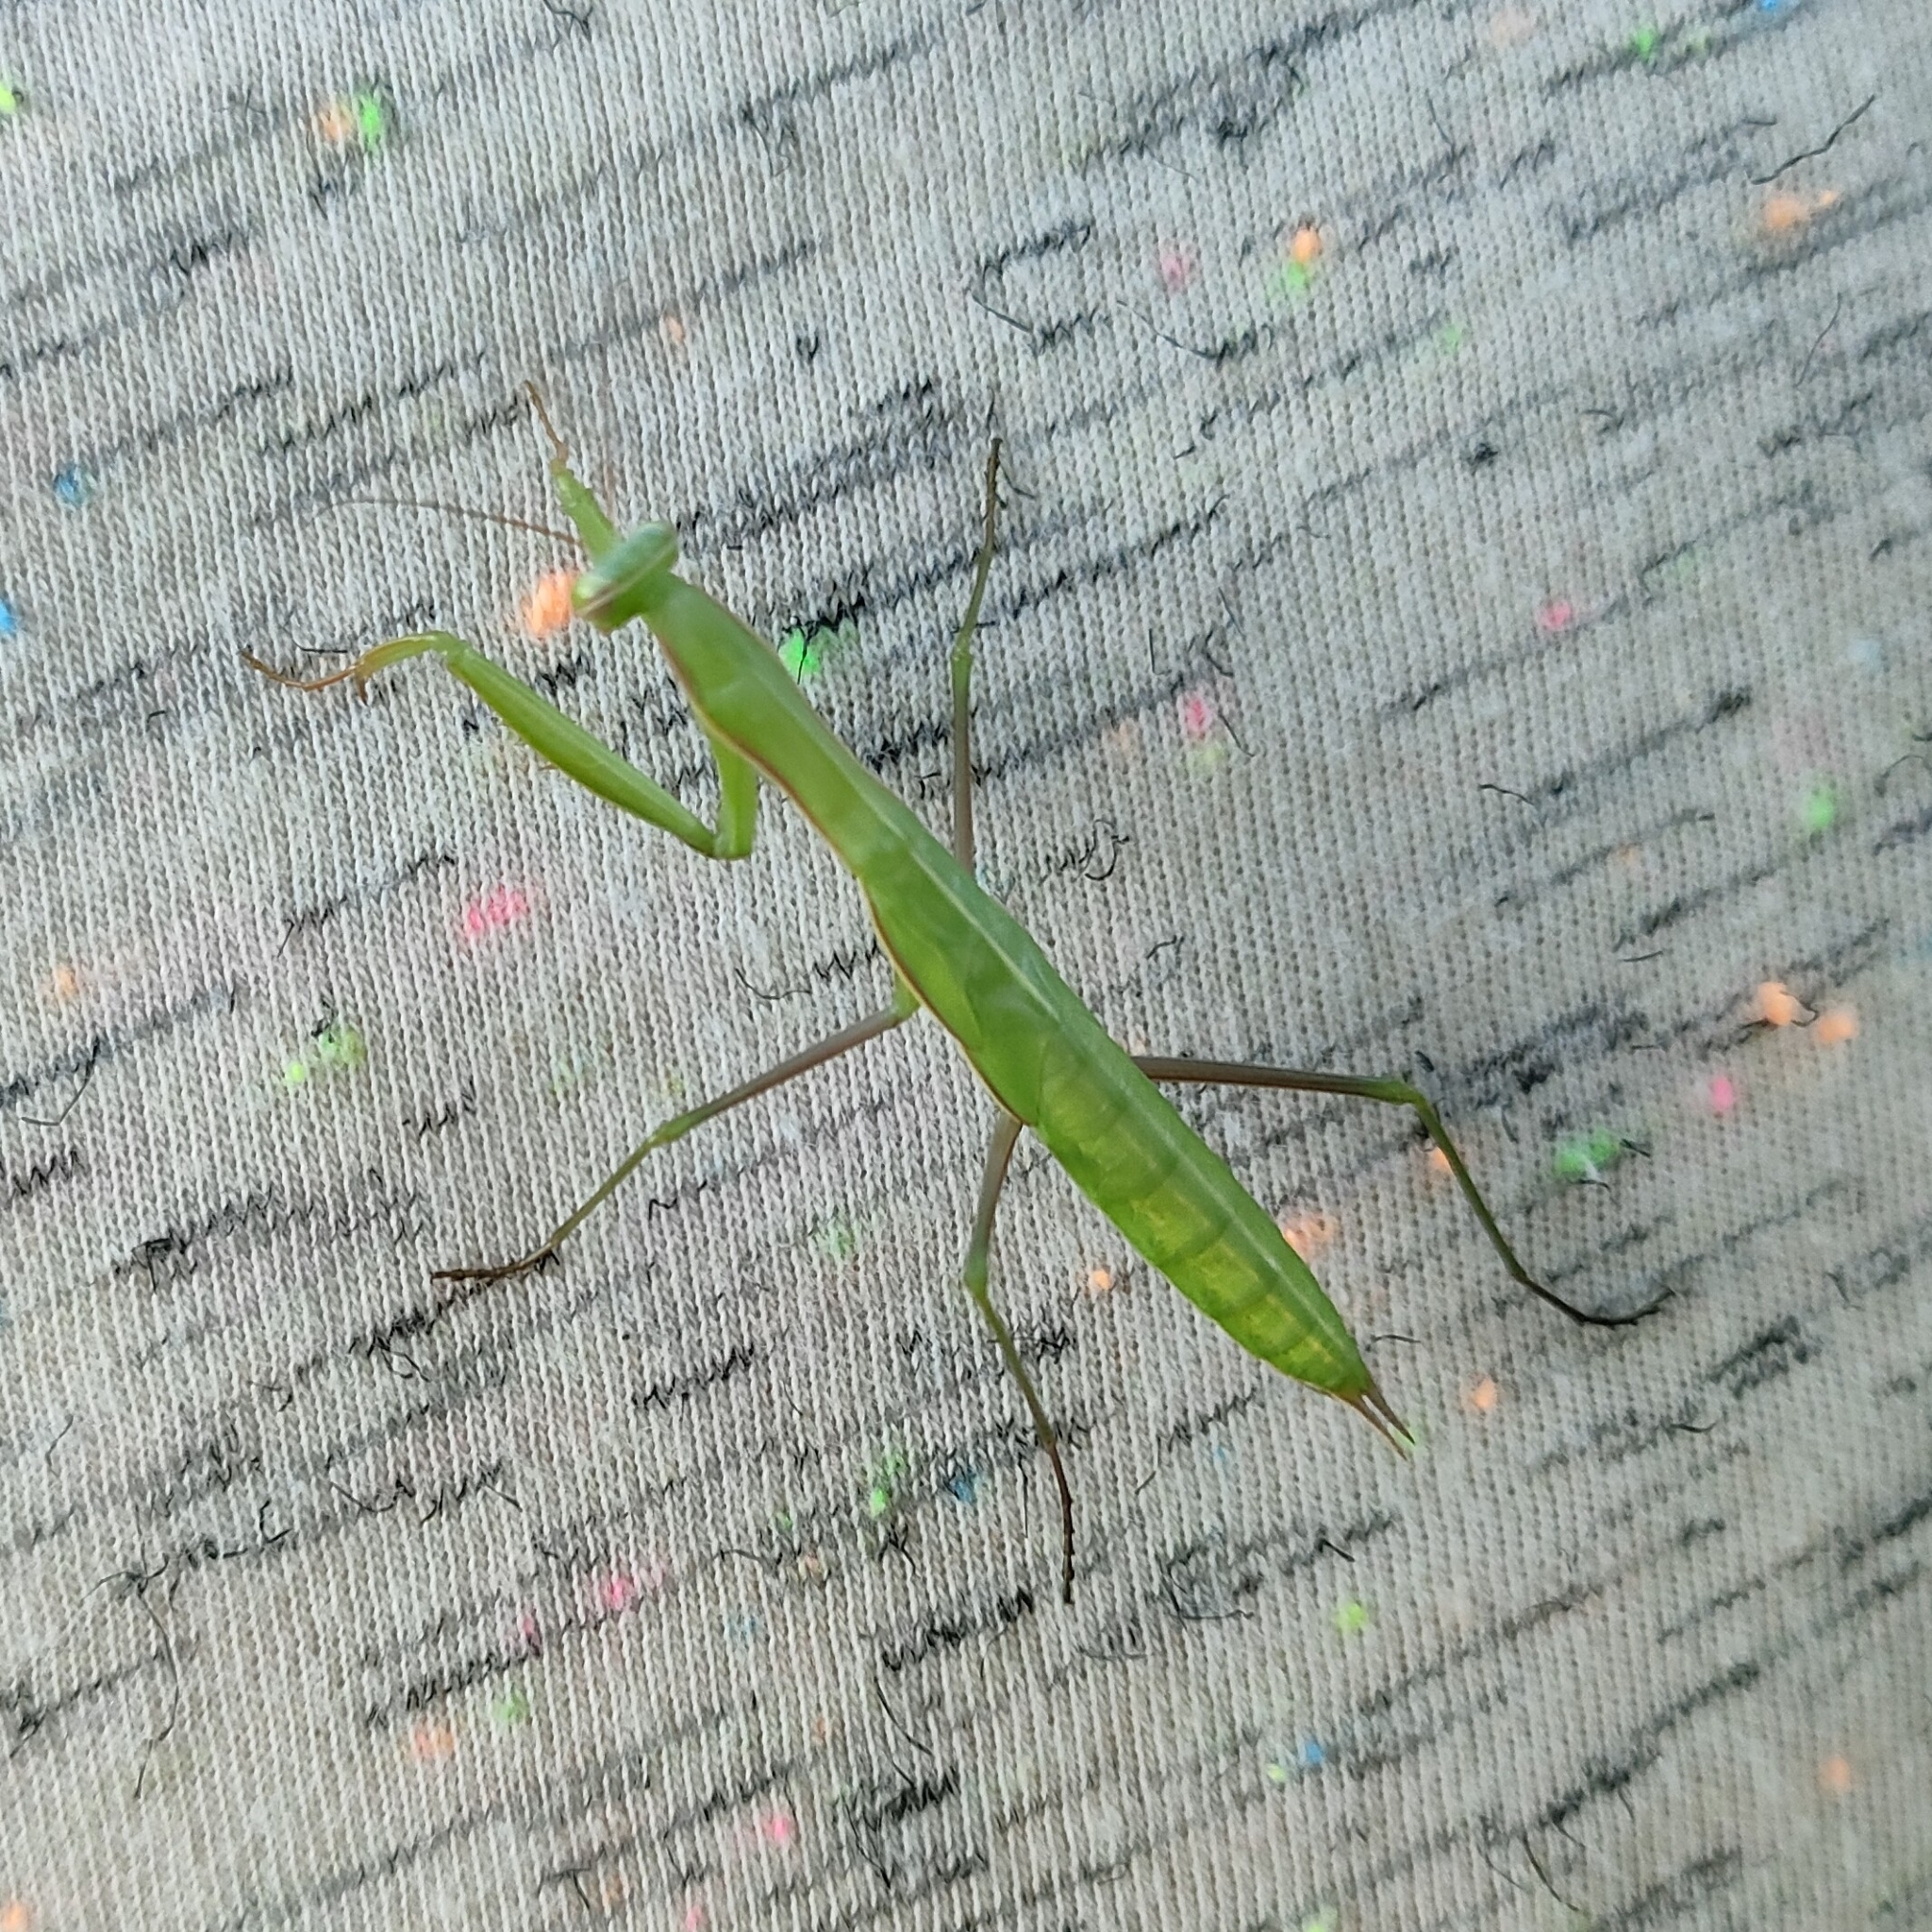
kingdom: Animalia
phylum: Arthropoda
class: Insecta
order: Mantodea
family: Mantidae
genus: Mantis
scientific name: Mantis religiosa
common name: Praying mantis
